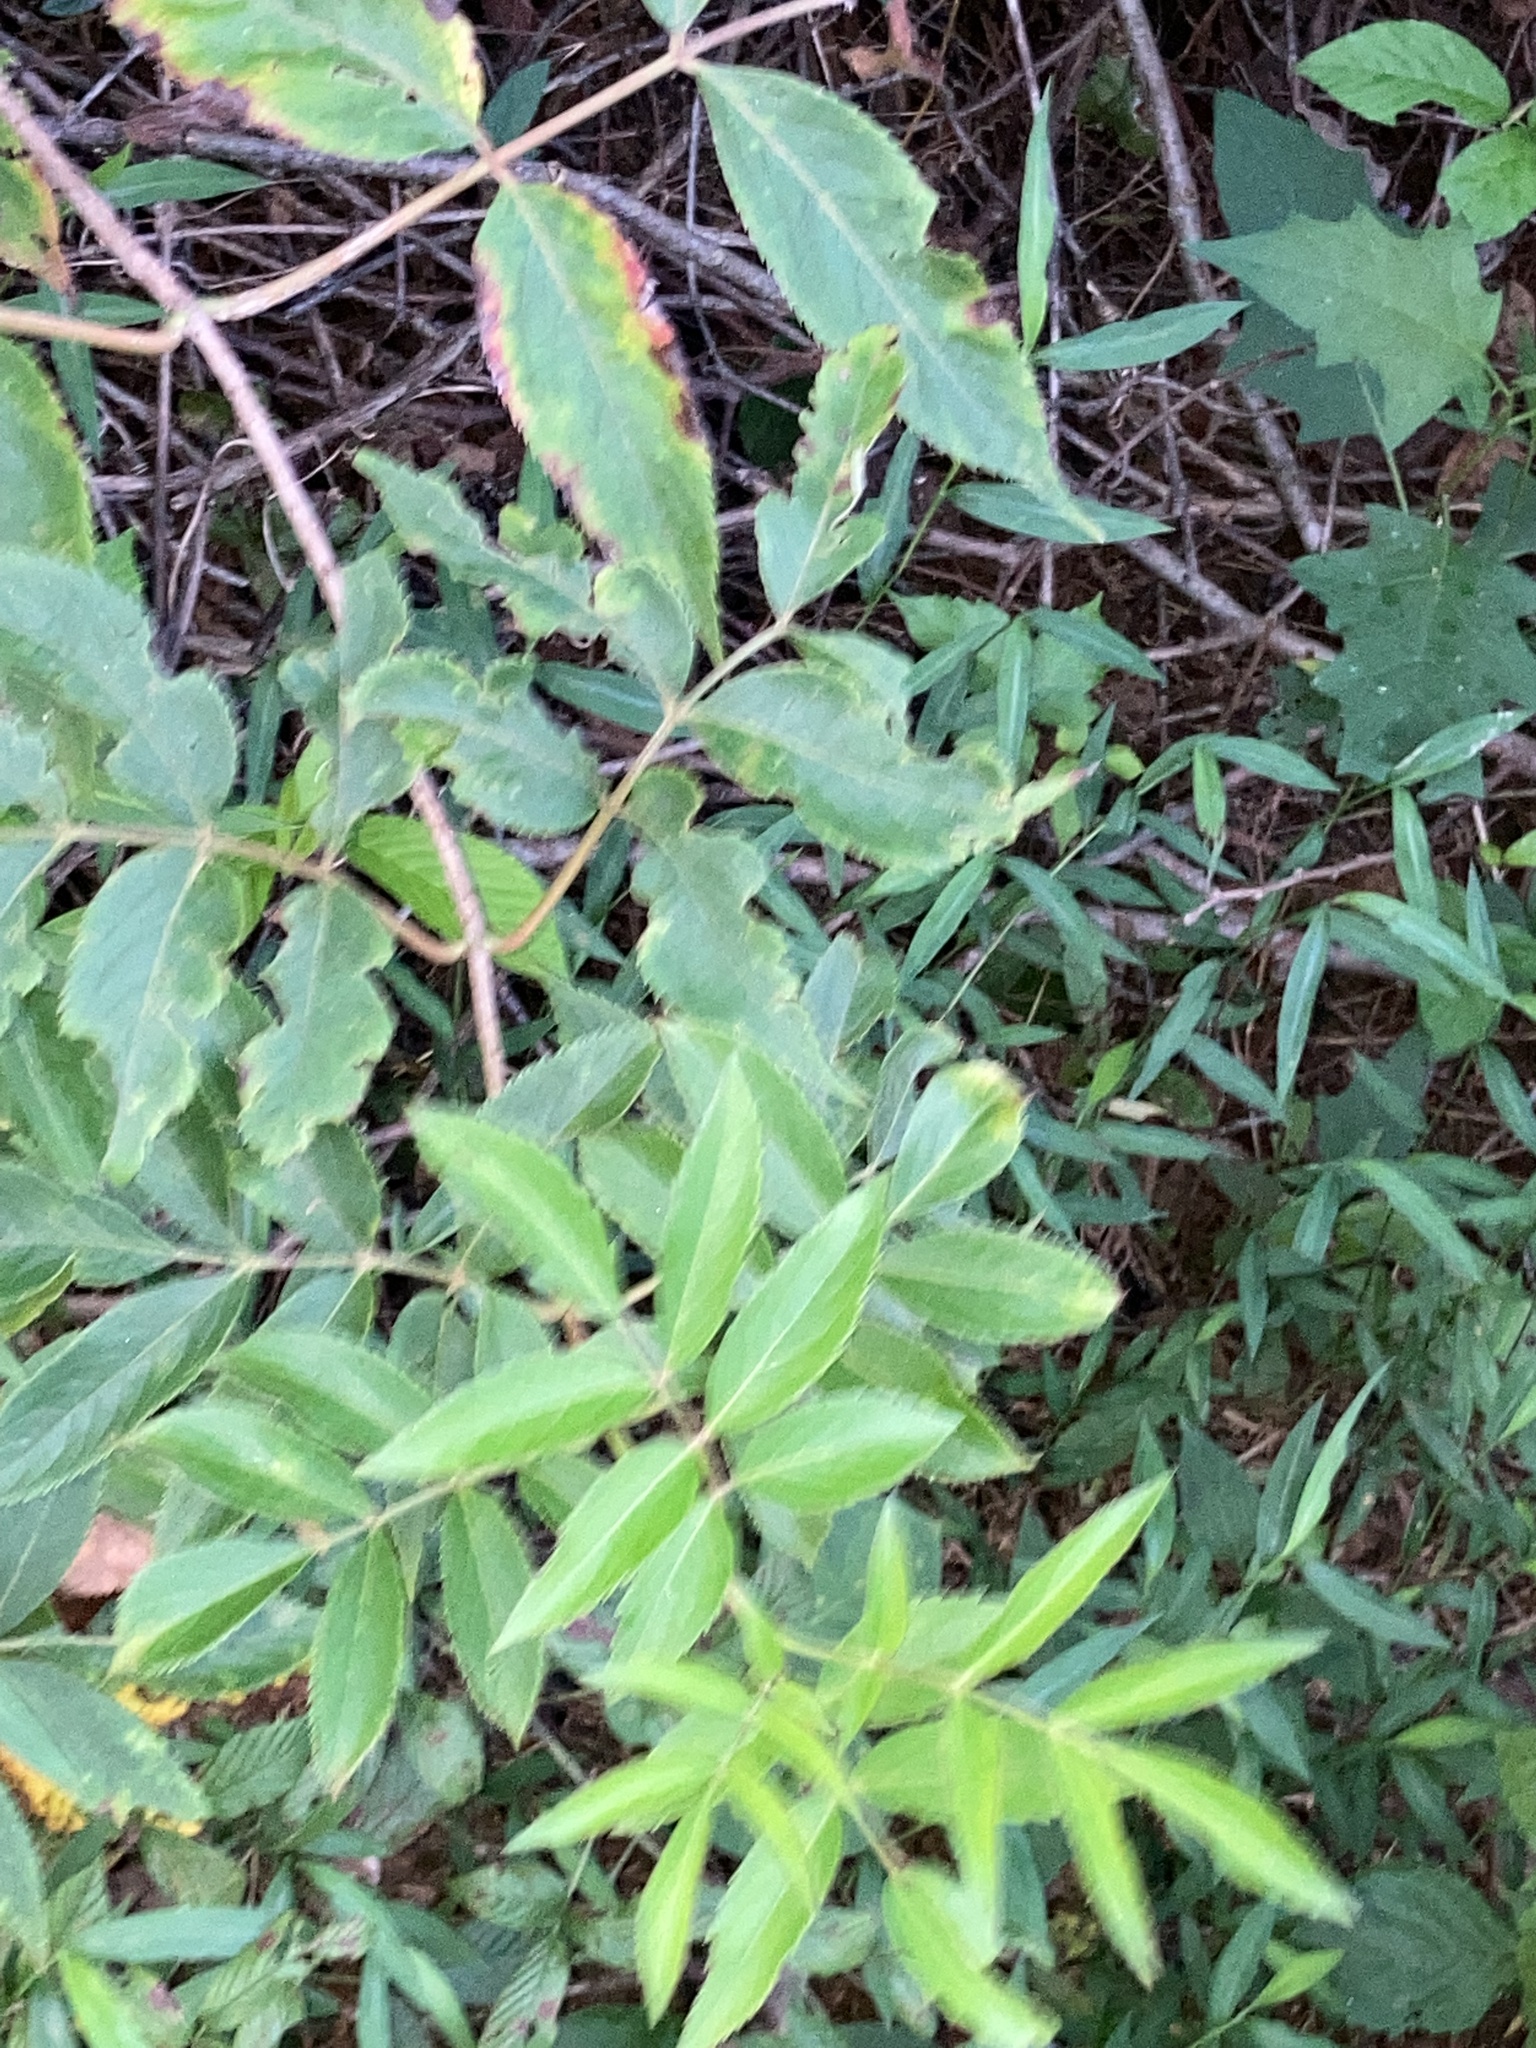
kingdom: Plantae
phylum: Tracheophyta
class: Magnoliopsida
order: Dipsacales
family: Viburnaceae
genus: Sambucus
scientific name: Sambucus canadensis
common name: American elder
